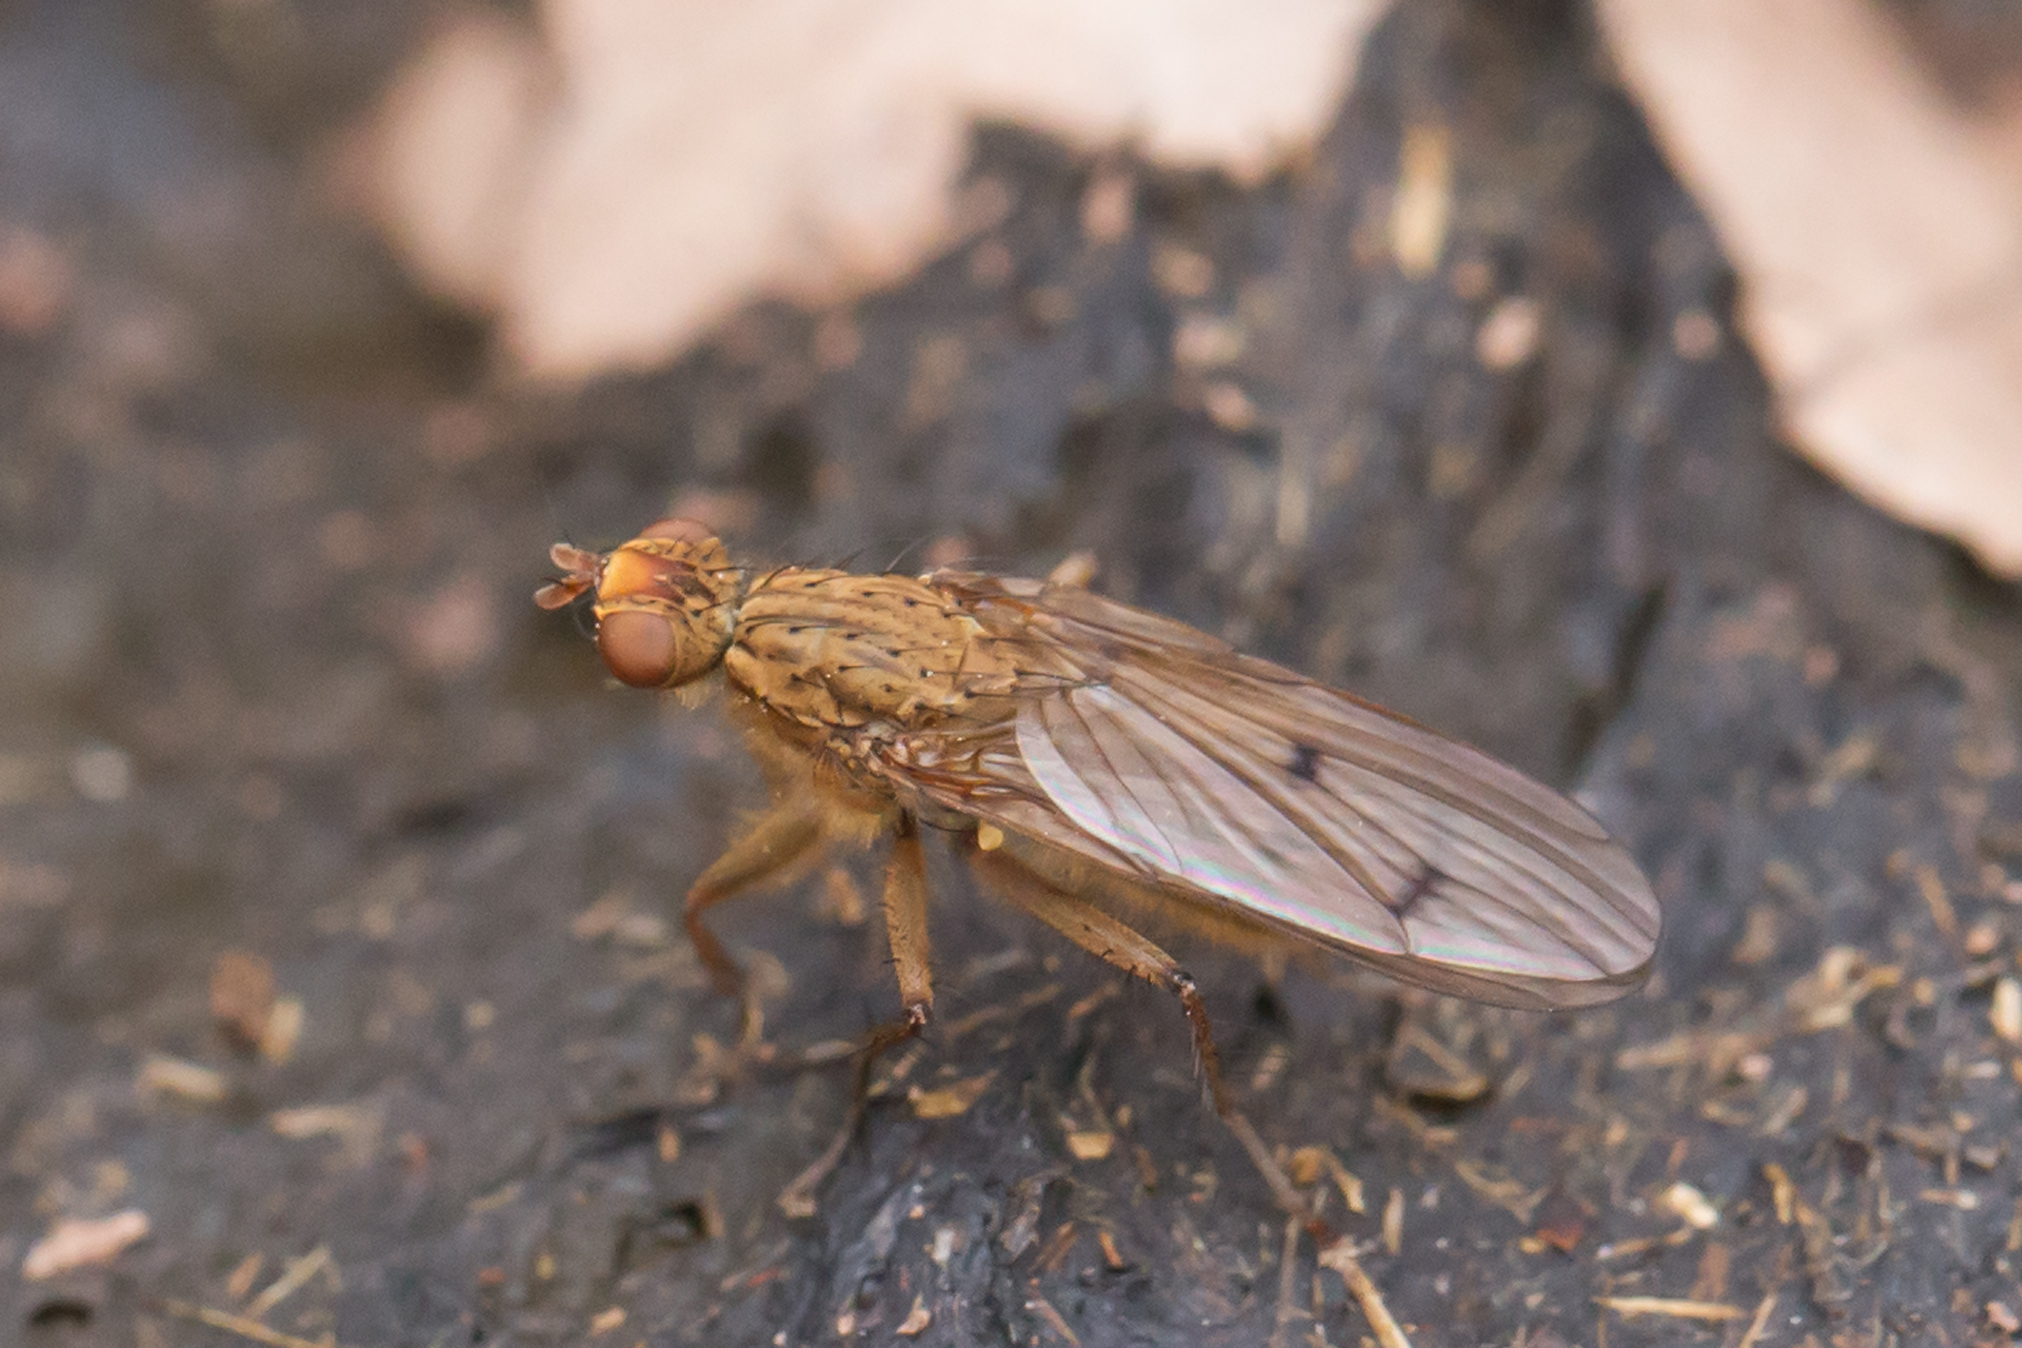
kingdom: Animalia
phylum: Arthropoda
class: Insecta
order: Diptera
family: Scathophagidae
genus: Scathophaga
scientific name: Scathophaga furcata
